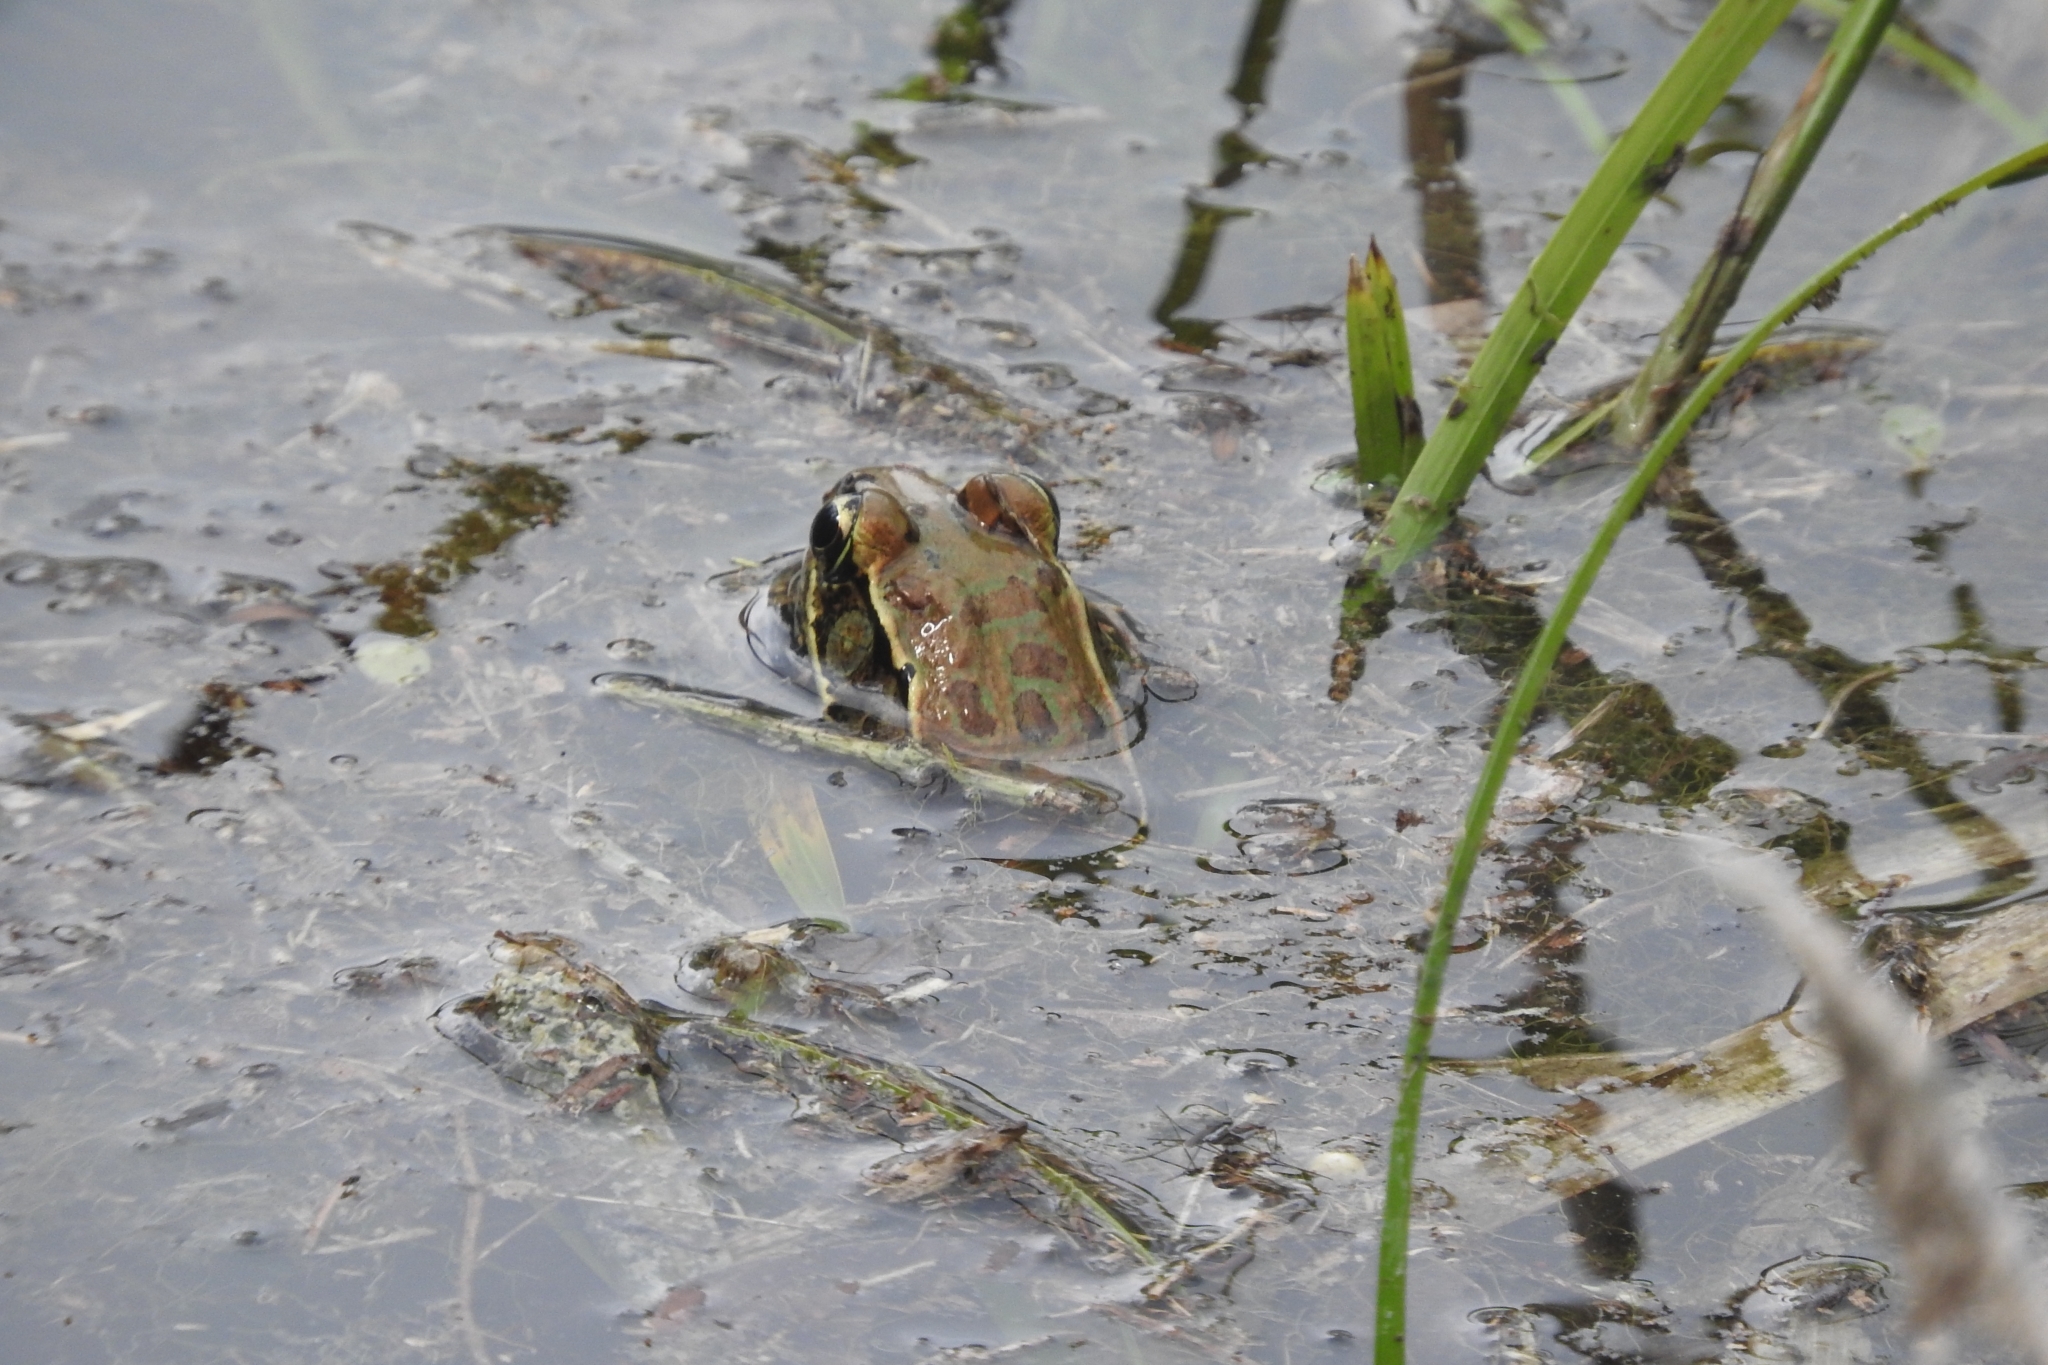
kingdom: Animalia
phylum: Chordata
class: Amphibia
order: Anura
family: Ranidae
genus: Lithobates
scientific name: Lithobates brownorum
